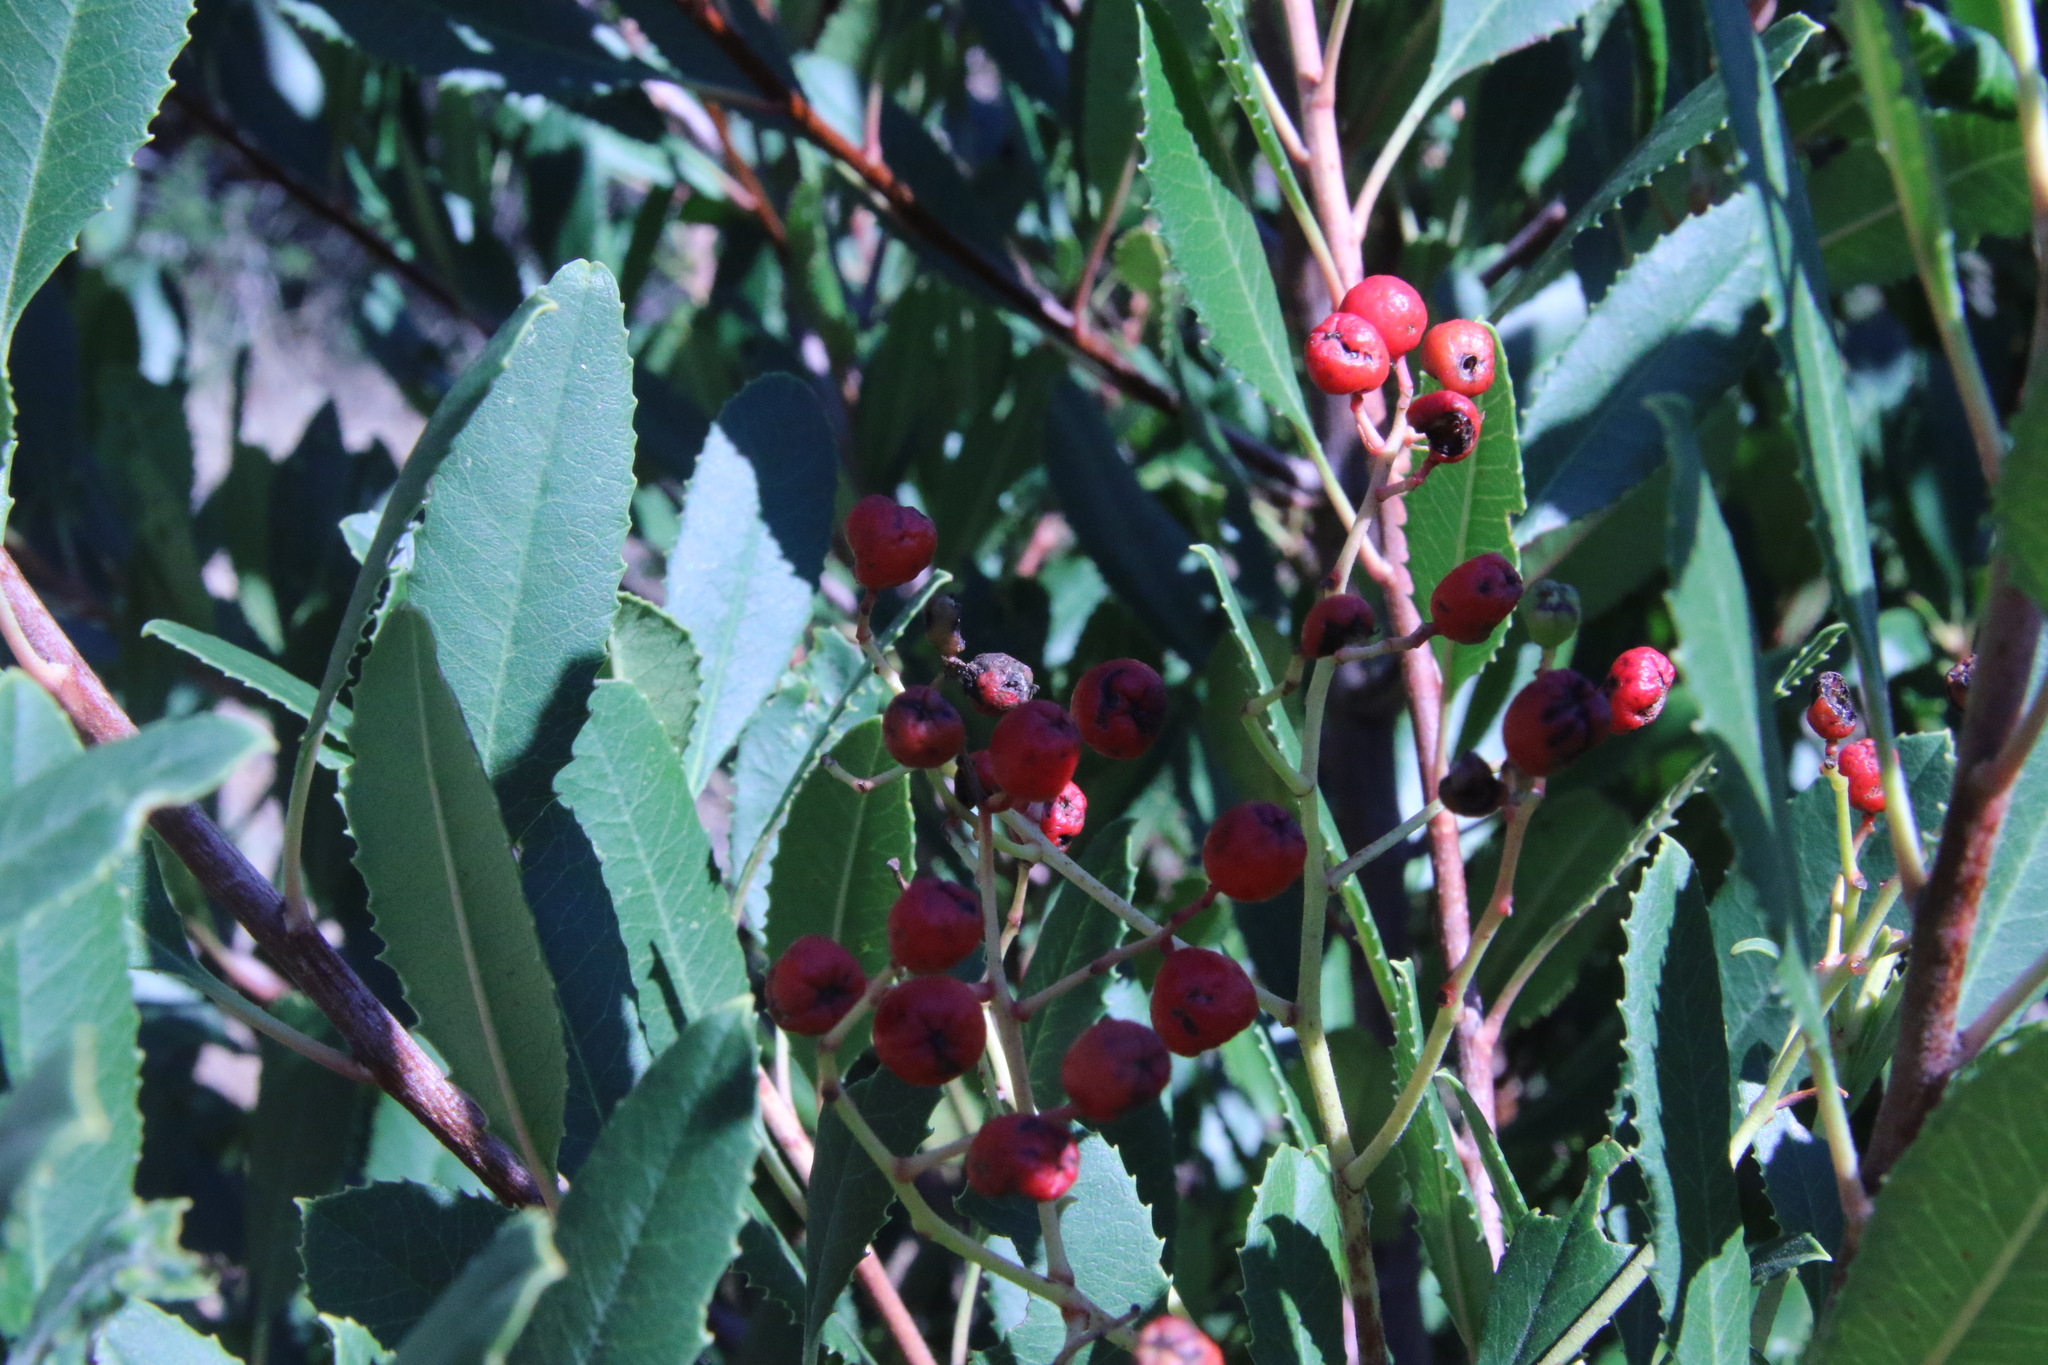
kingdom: Plantae
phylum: Tracheophyta
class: Magnoliopsida
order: Rosales
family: Rosaceae
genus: Heteromeles
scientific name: Heteromeles arbutifolia
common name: California-holly
